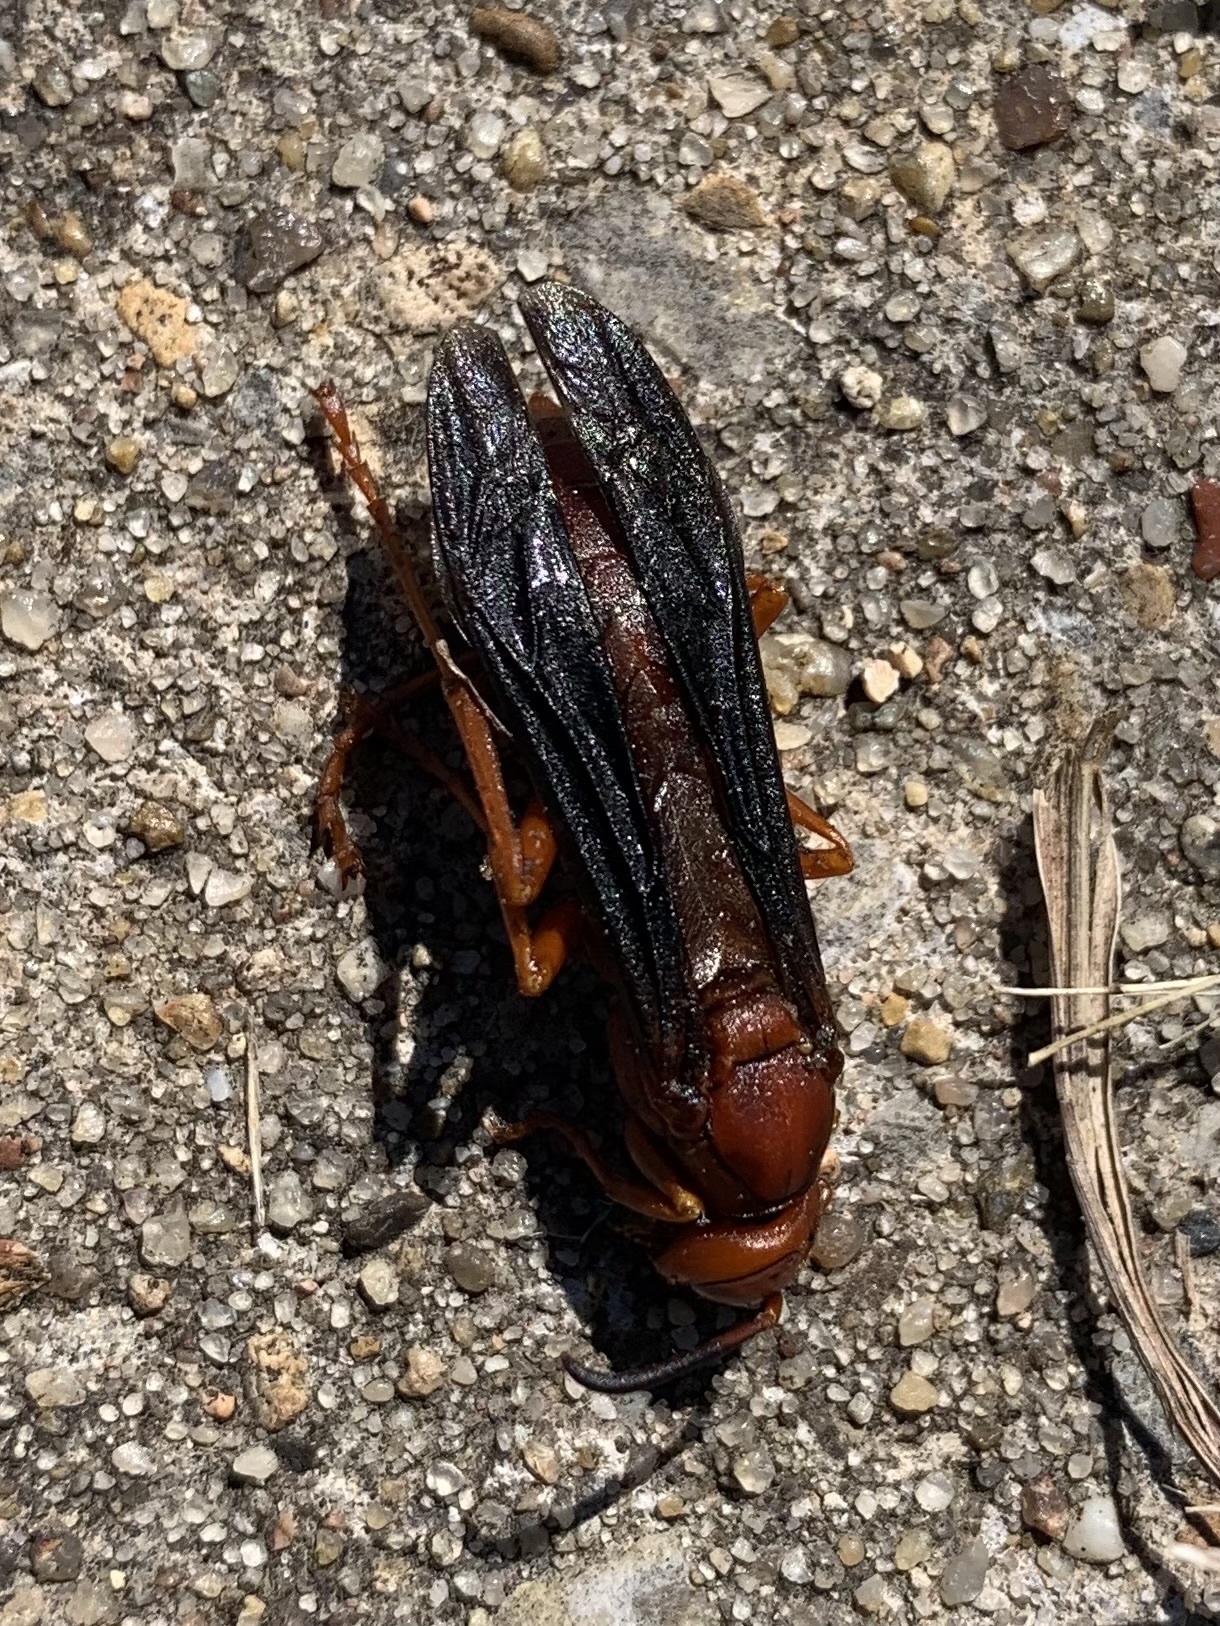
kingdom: Animalia
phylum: Arthropoda
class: Insecta
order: Hymenoptera
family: Vespidae
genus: Fuscopolistes
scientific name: Fuscopolistes
